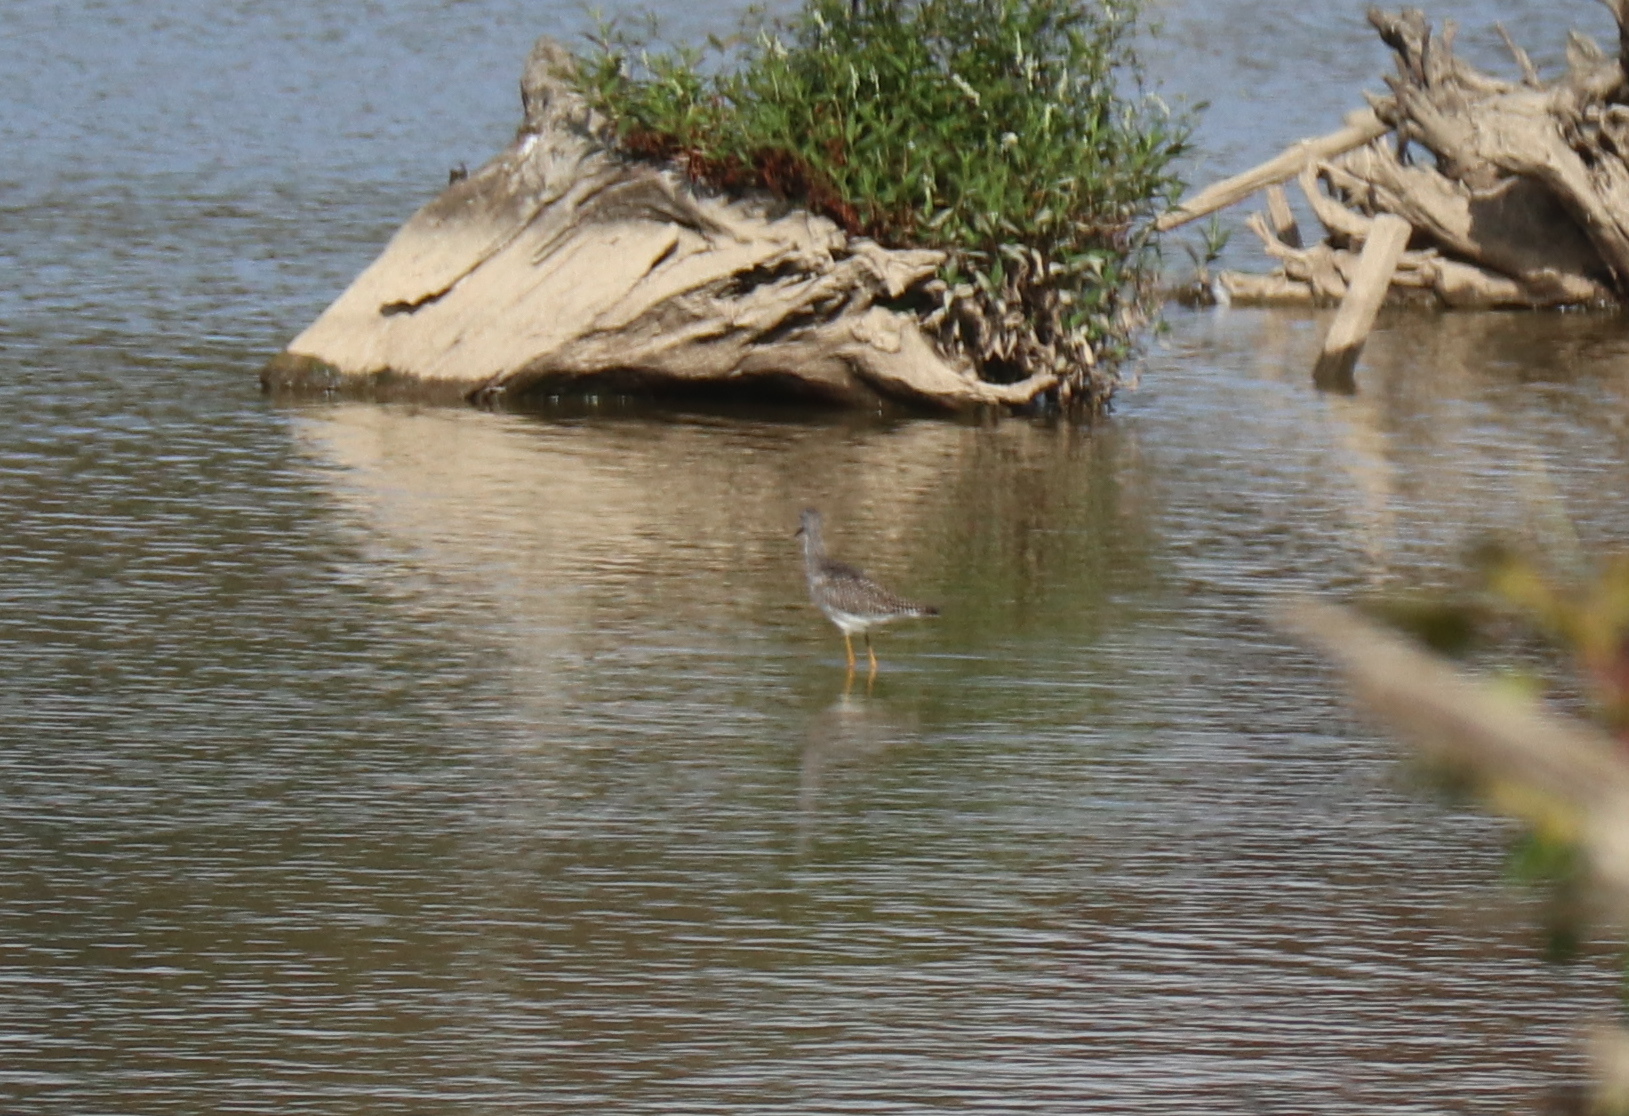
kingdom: Animalia
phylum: Chordata
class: Aves
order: Charadriiformes
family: Scolopacidae
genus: Tringa
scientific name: Tringa melanoleuca
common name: Greater yellowlegs
